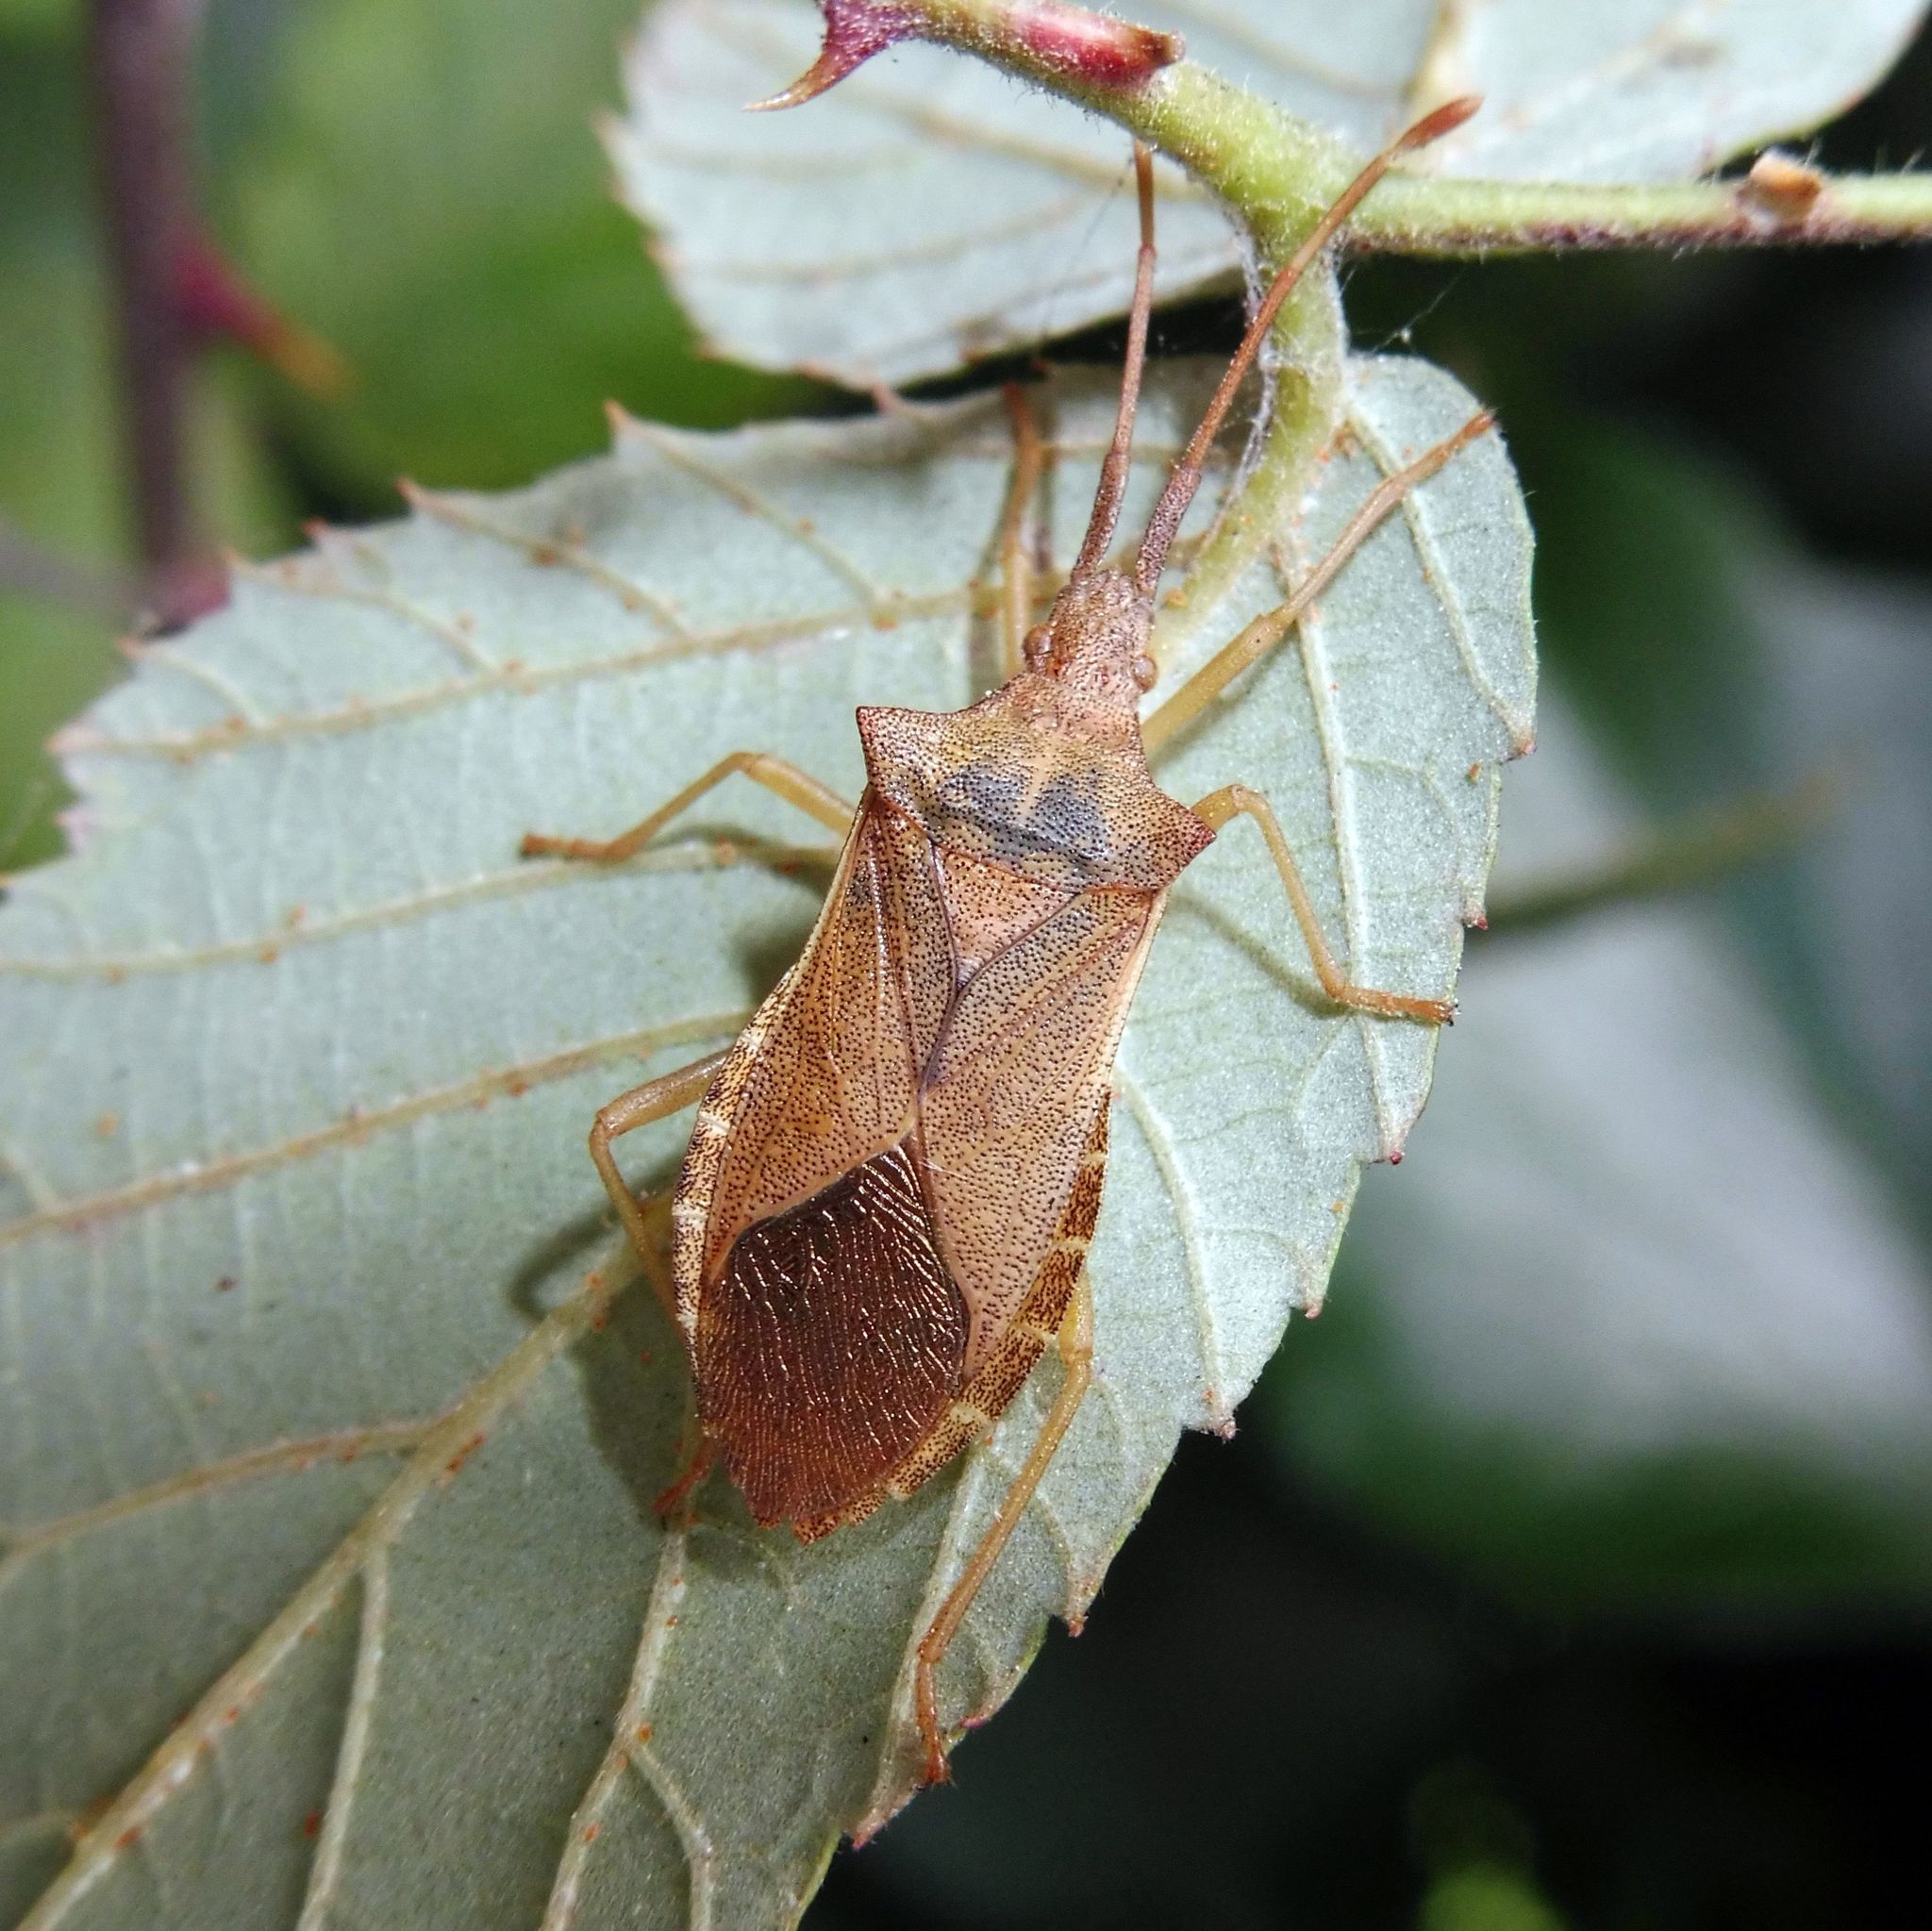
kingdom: Animalia
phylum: Arthropoda
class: Insecta
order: Hemiptera
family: Coreidae
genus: Gonocerus
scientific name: Gonocerus acuteangulatus
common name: Box bug
